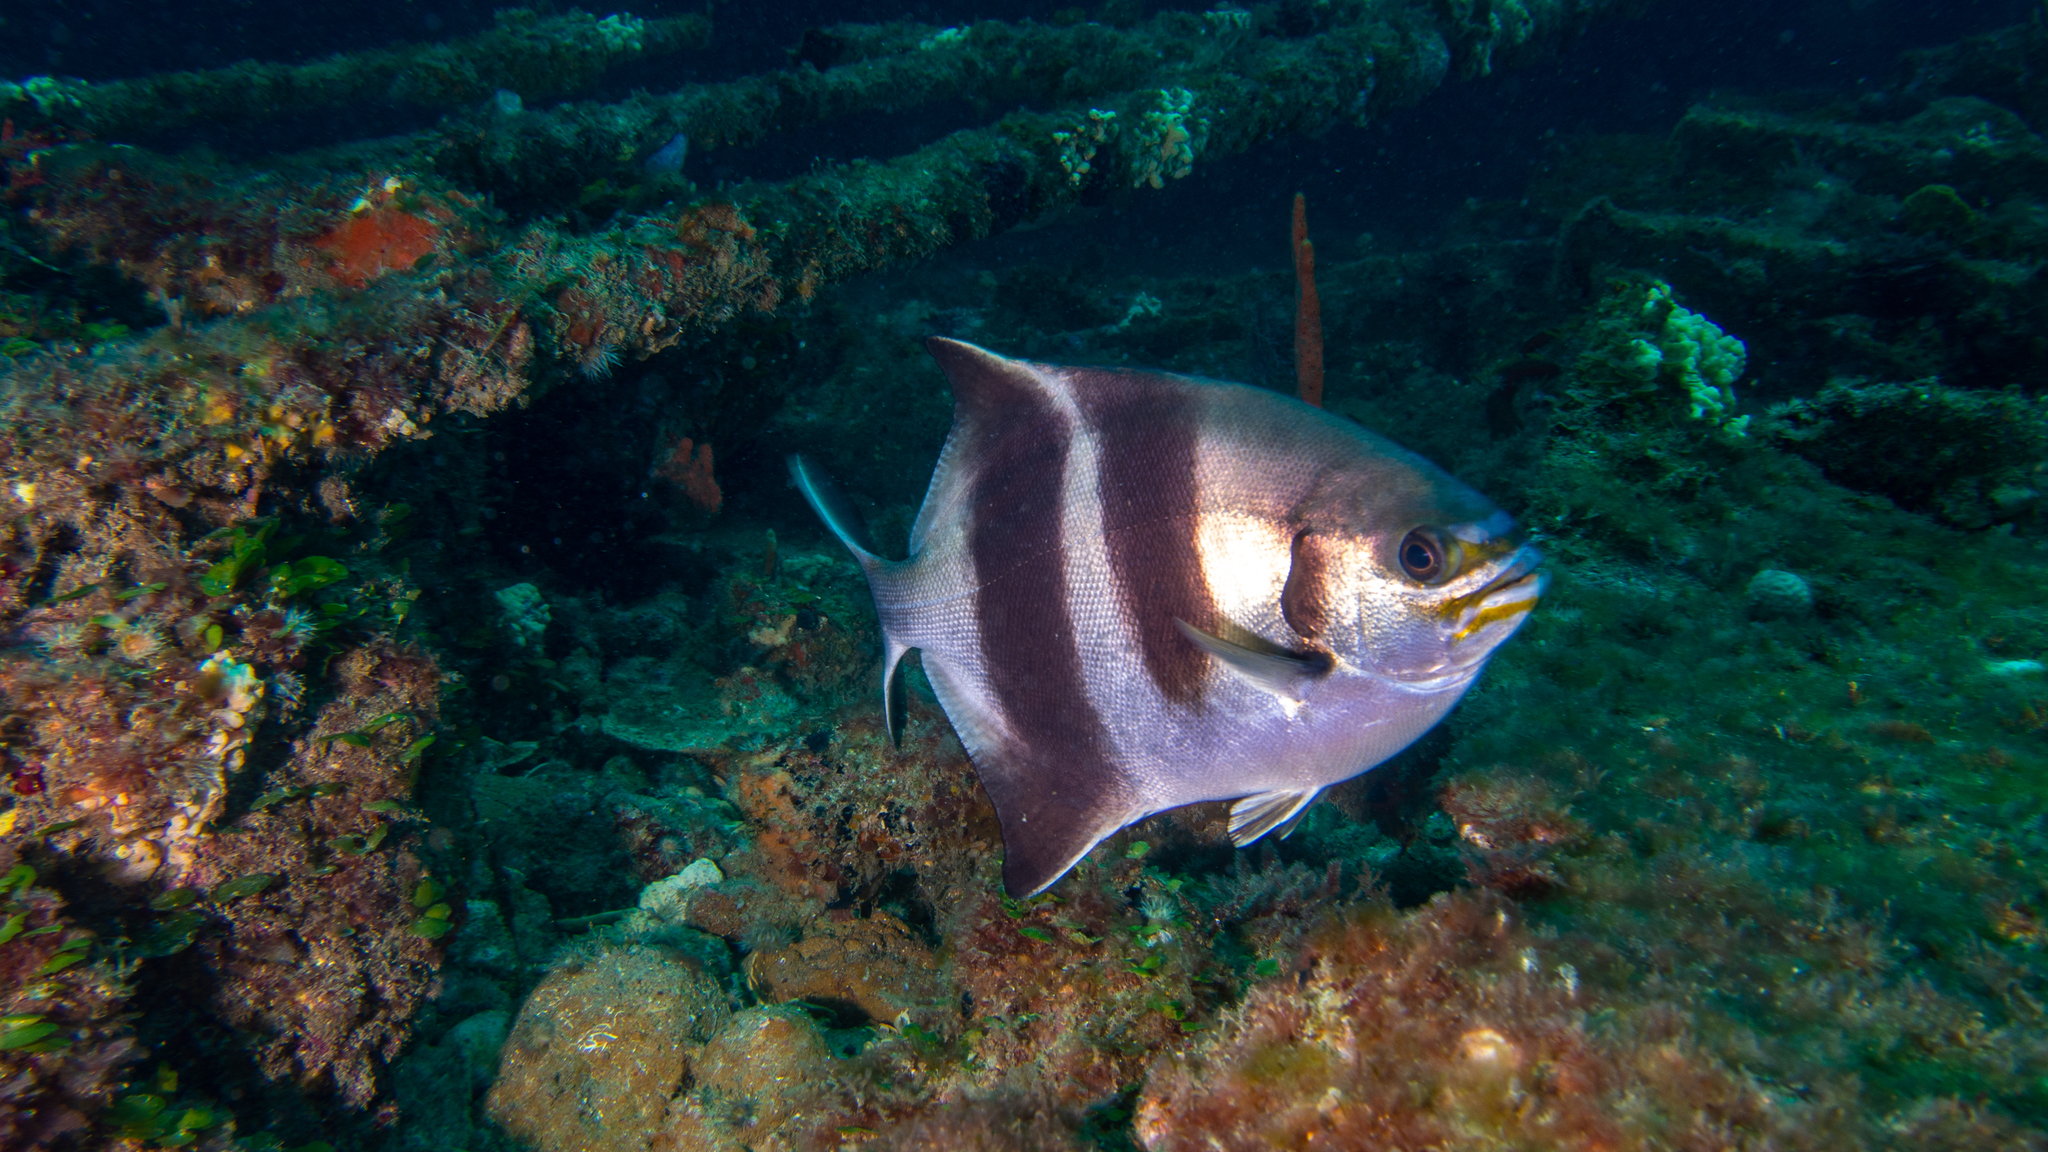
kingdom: Animalia
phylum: Chordata
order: Perciformes
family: Kyphosidae
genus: Scorpis
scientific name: Scorpis georgiana
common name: Banded sweep
